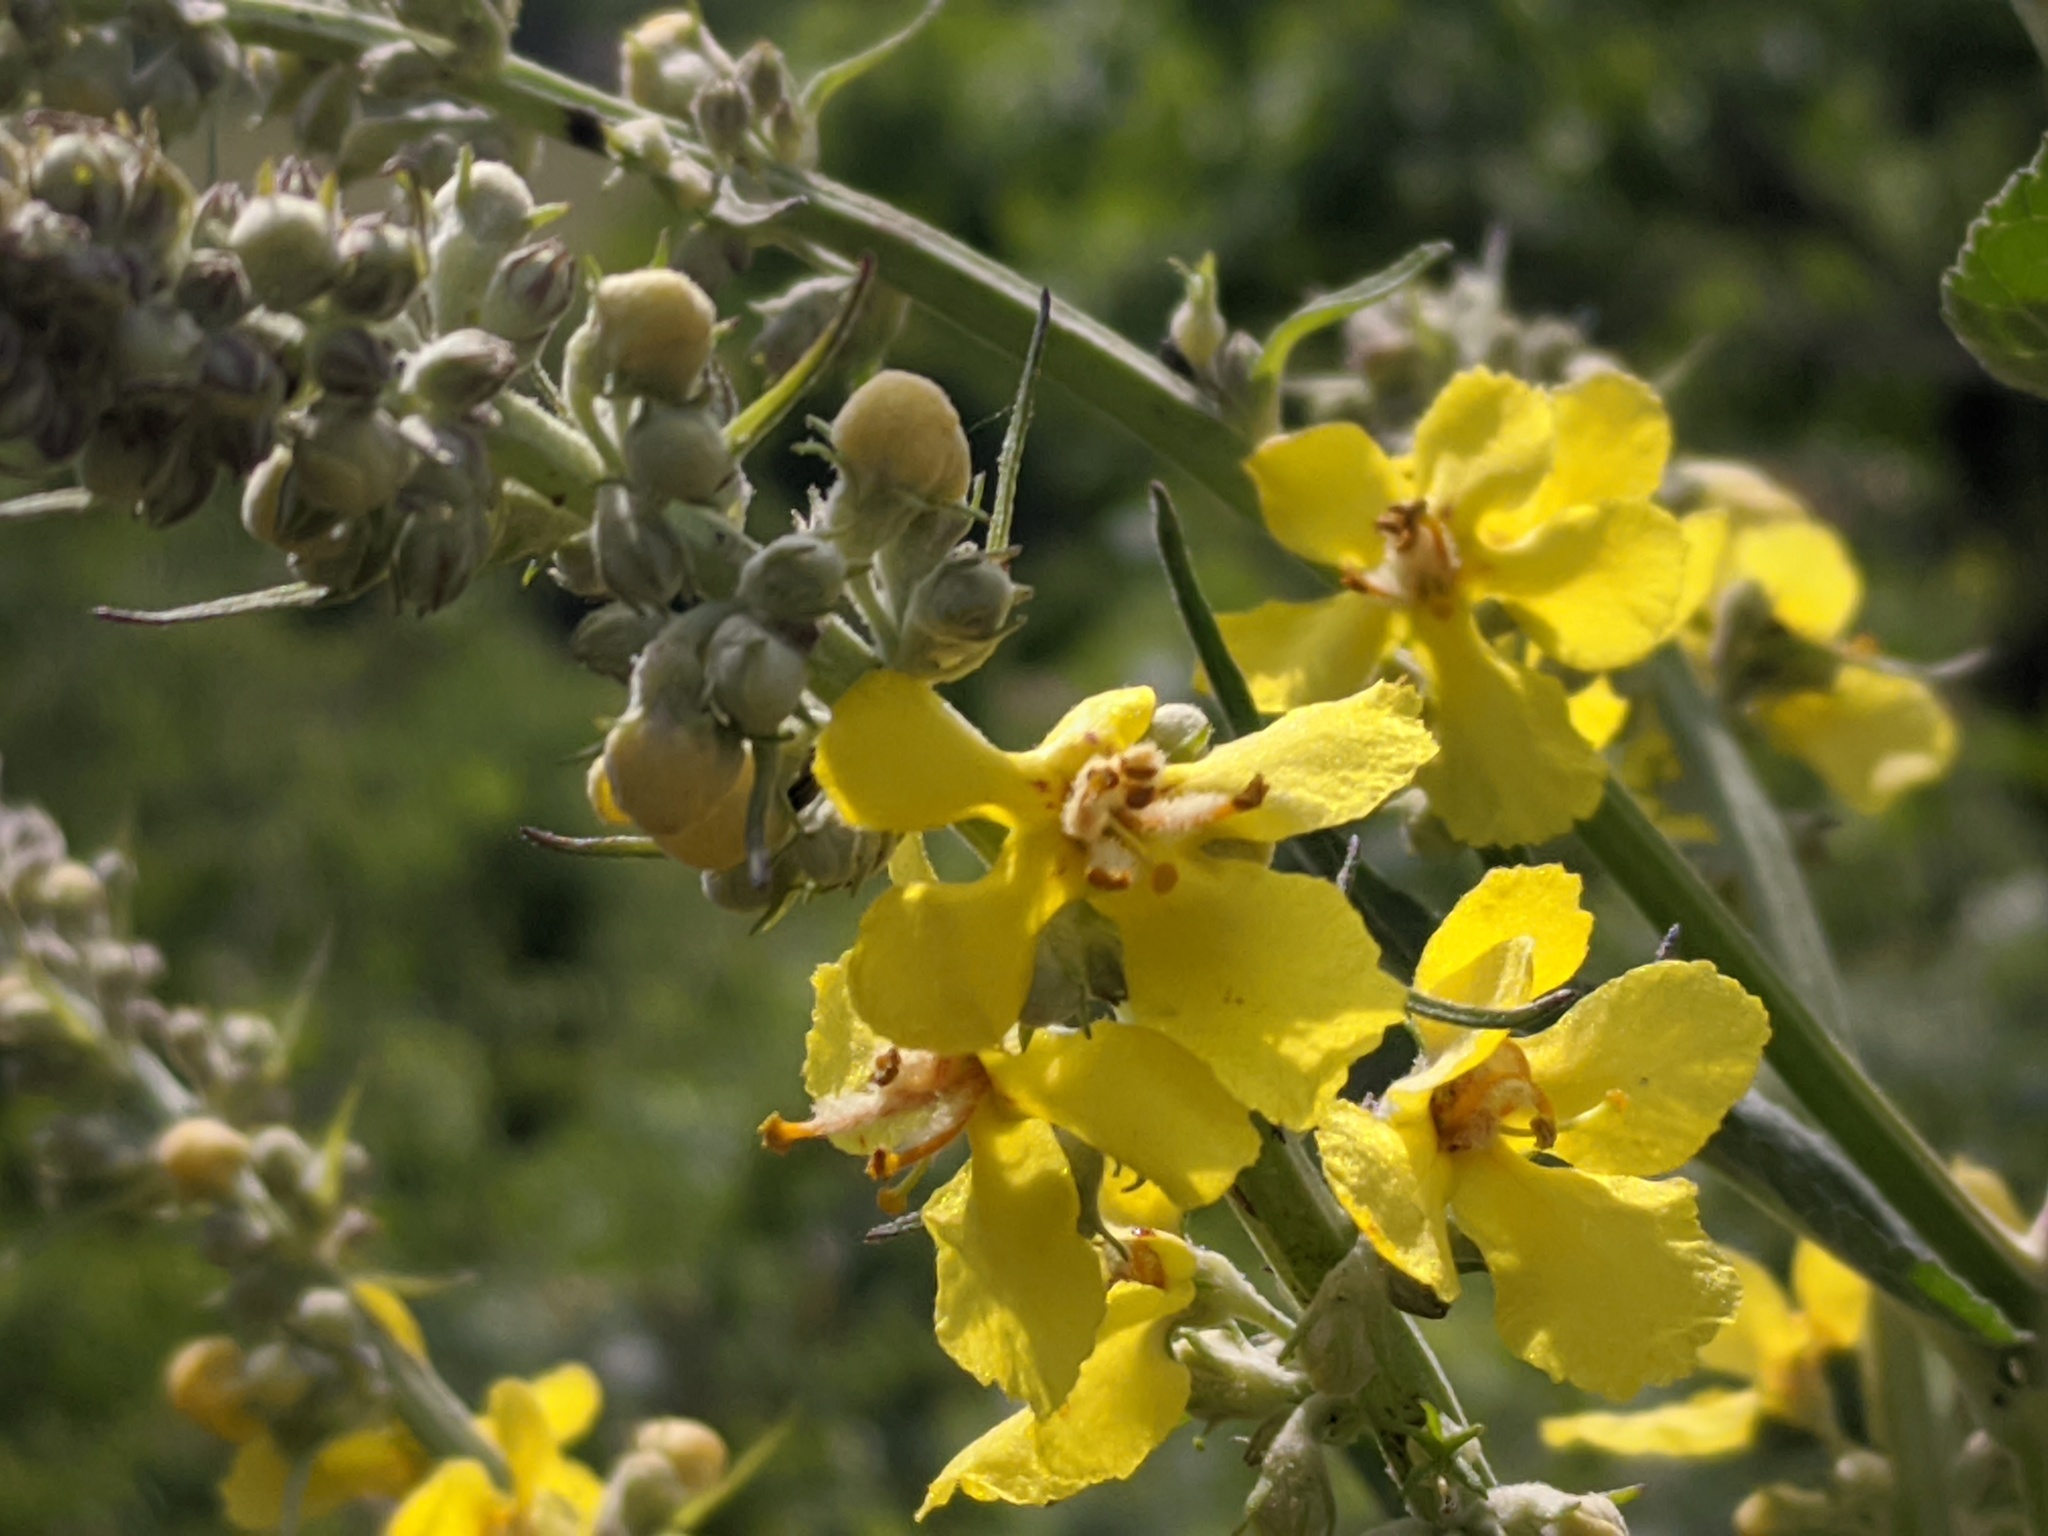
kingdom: Plantae
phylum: Tracheophyta
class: Magnoliopsida
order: Lamiales
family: Scrophulariaceae
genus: Verbascum
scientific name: Verbascum lychnitis
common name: White mullein
